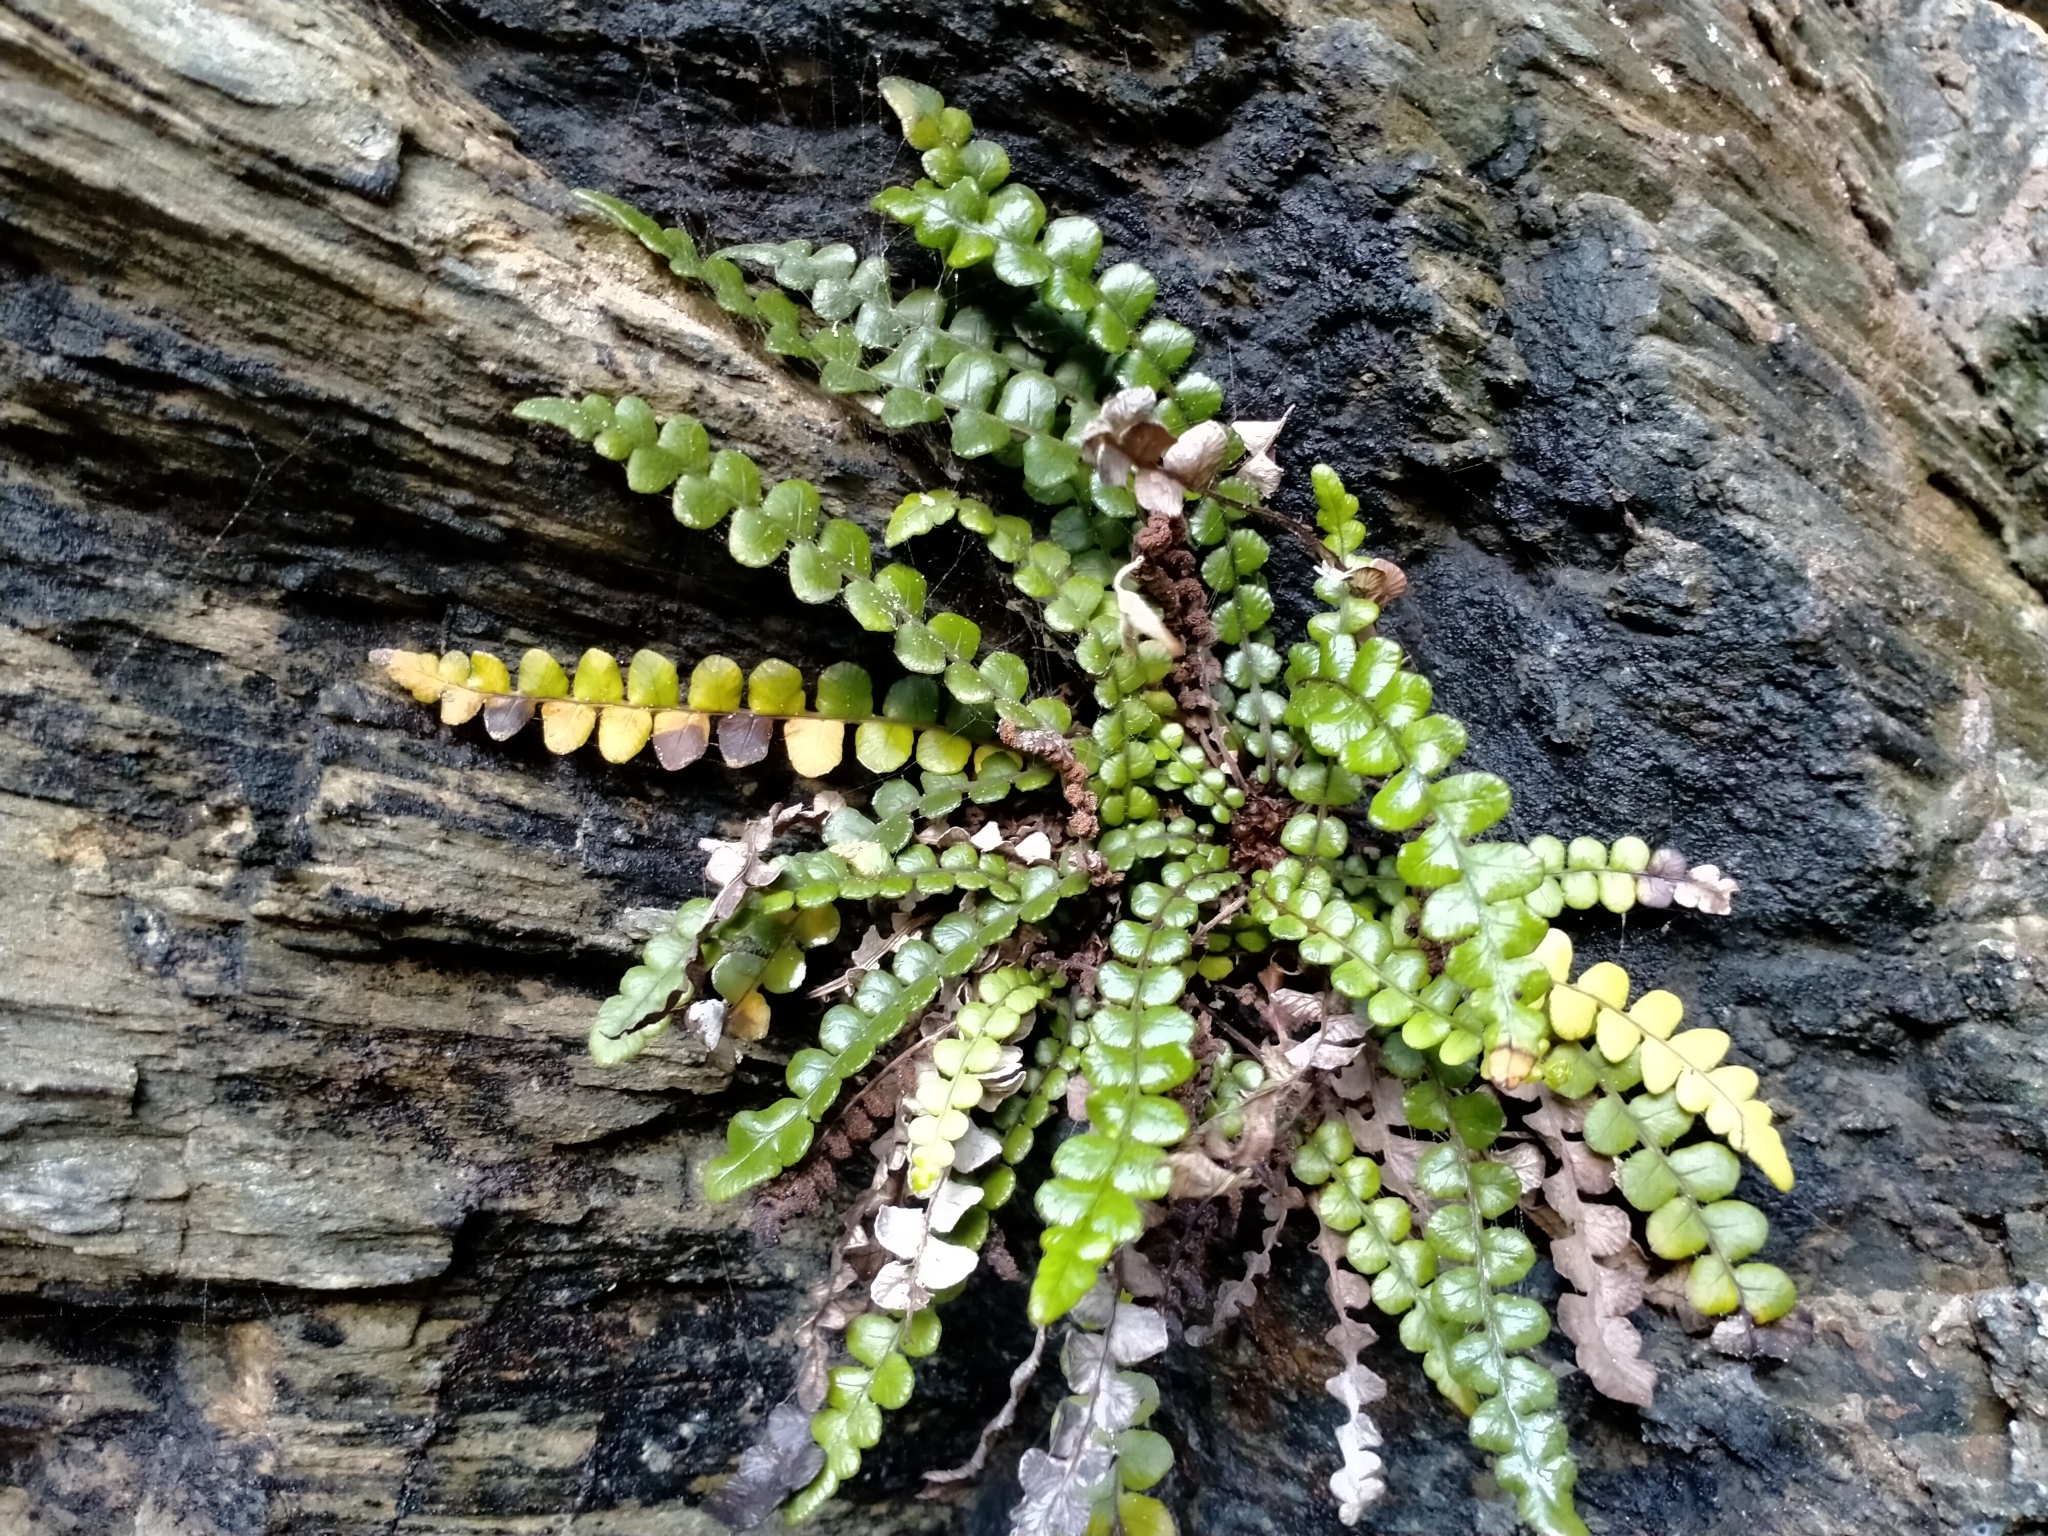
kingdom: Plantae
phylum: Tracheophyta
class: Polypodiopsida
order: Polypodiales
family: Blechnaceae
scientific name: Blechnaceae
